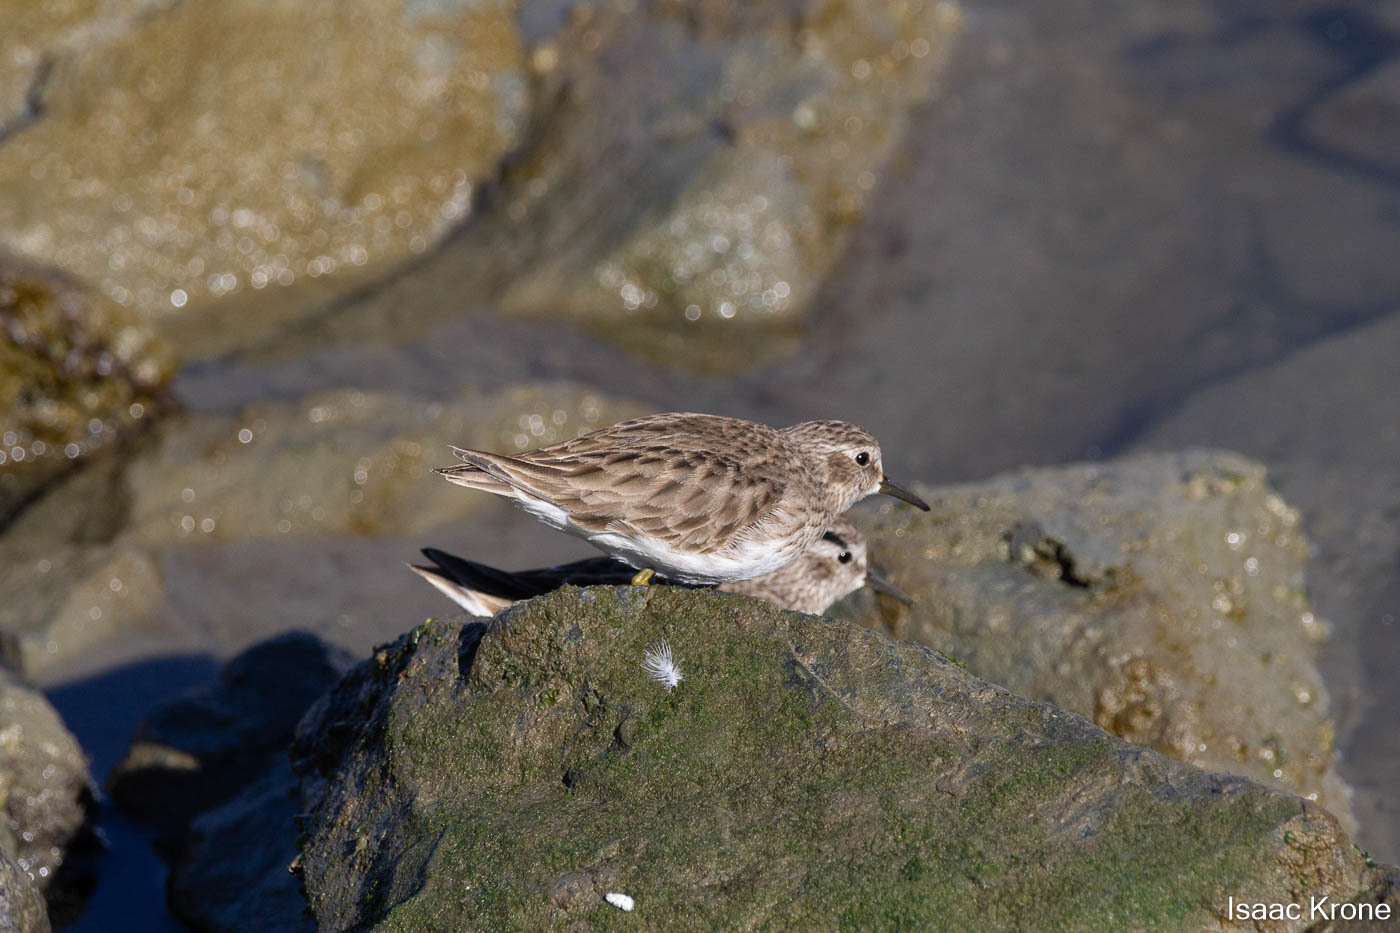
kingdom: Animalia
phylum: Chordata
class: Aves
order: Charadriiformes
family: Scolopacidae
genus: Calidris
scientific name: Calidris minutilla
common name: Least sandpiper
